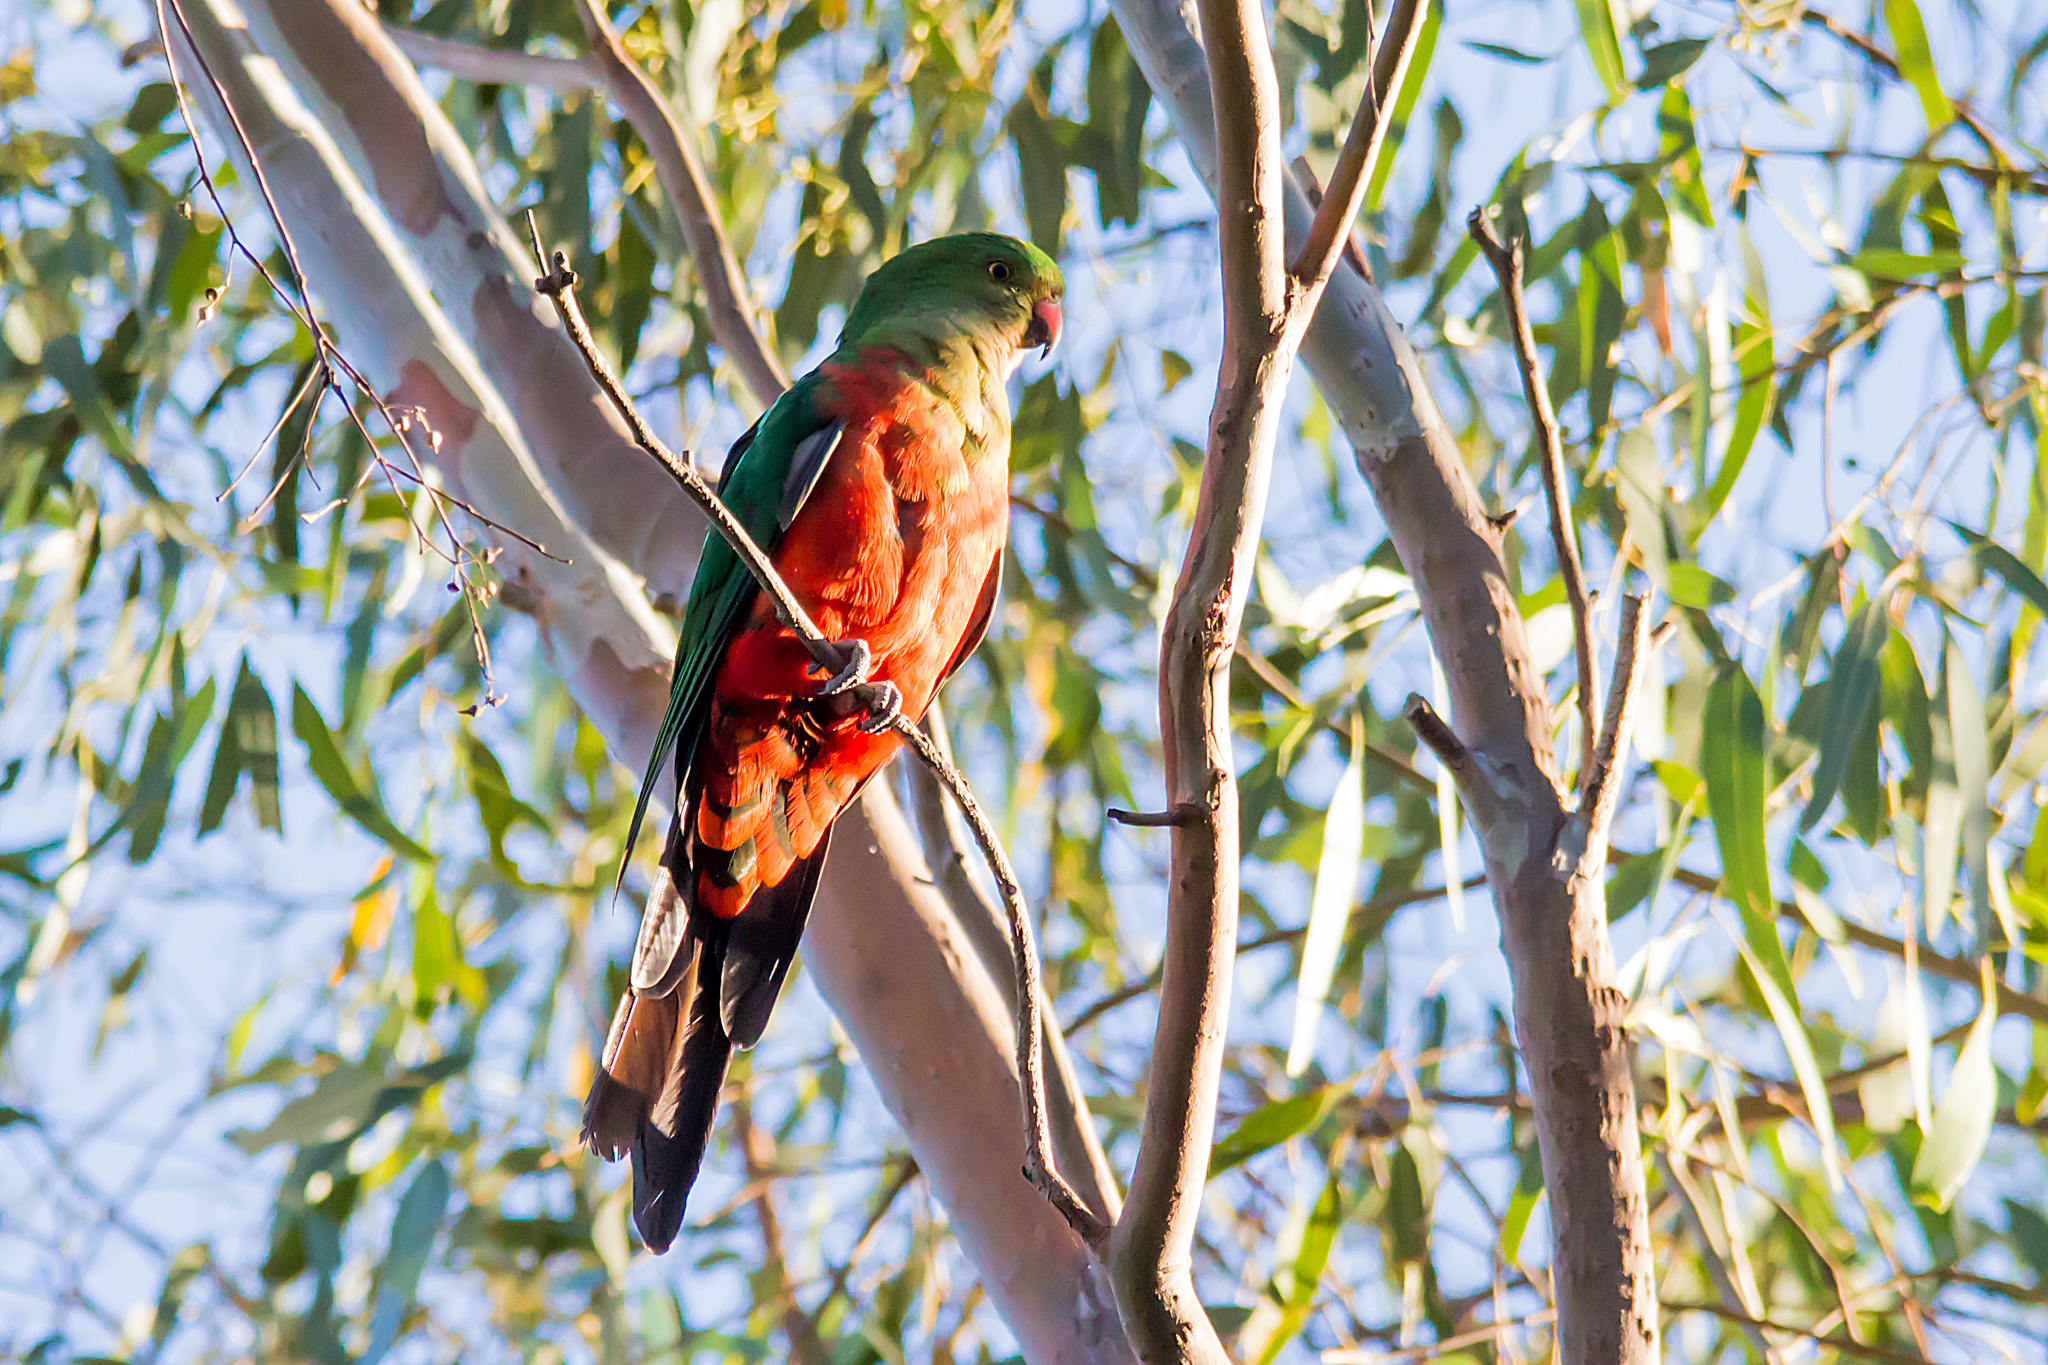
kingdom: Animalia
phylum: Chordata
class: Aves
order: Psittaciformes
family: Psittacidae
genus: Alisterus
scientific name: Alisterus scapularis
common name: Australian king parrot
